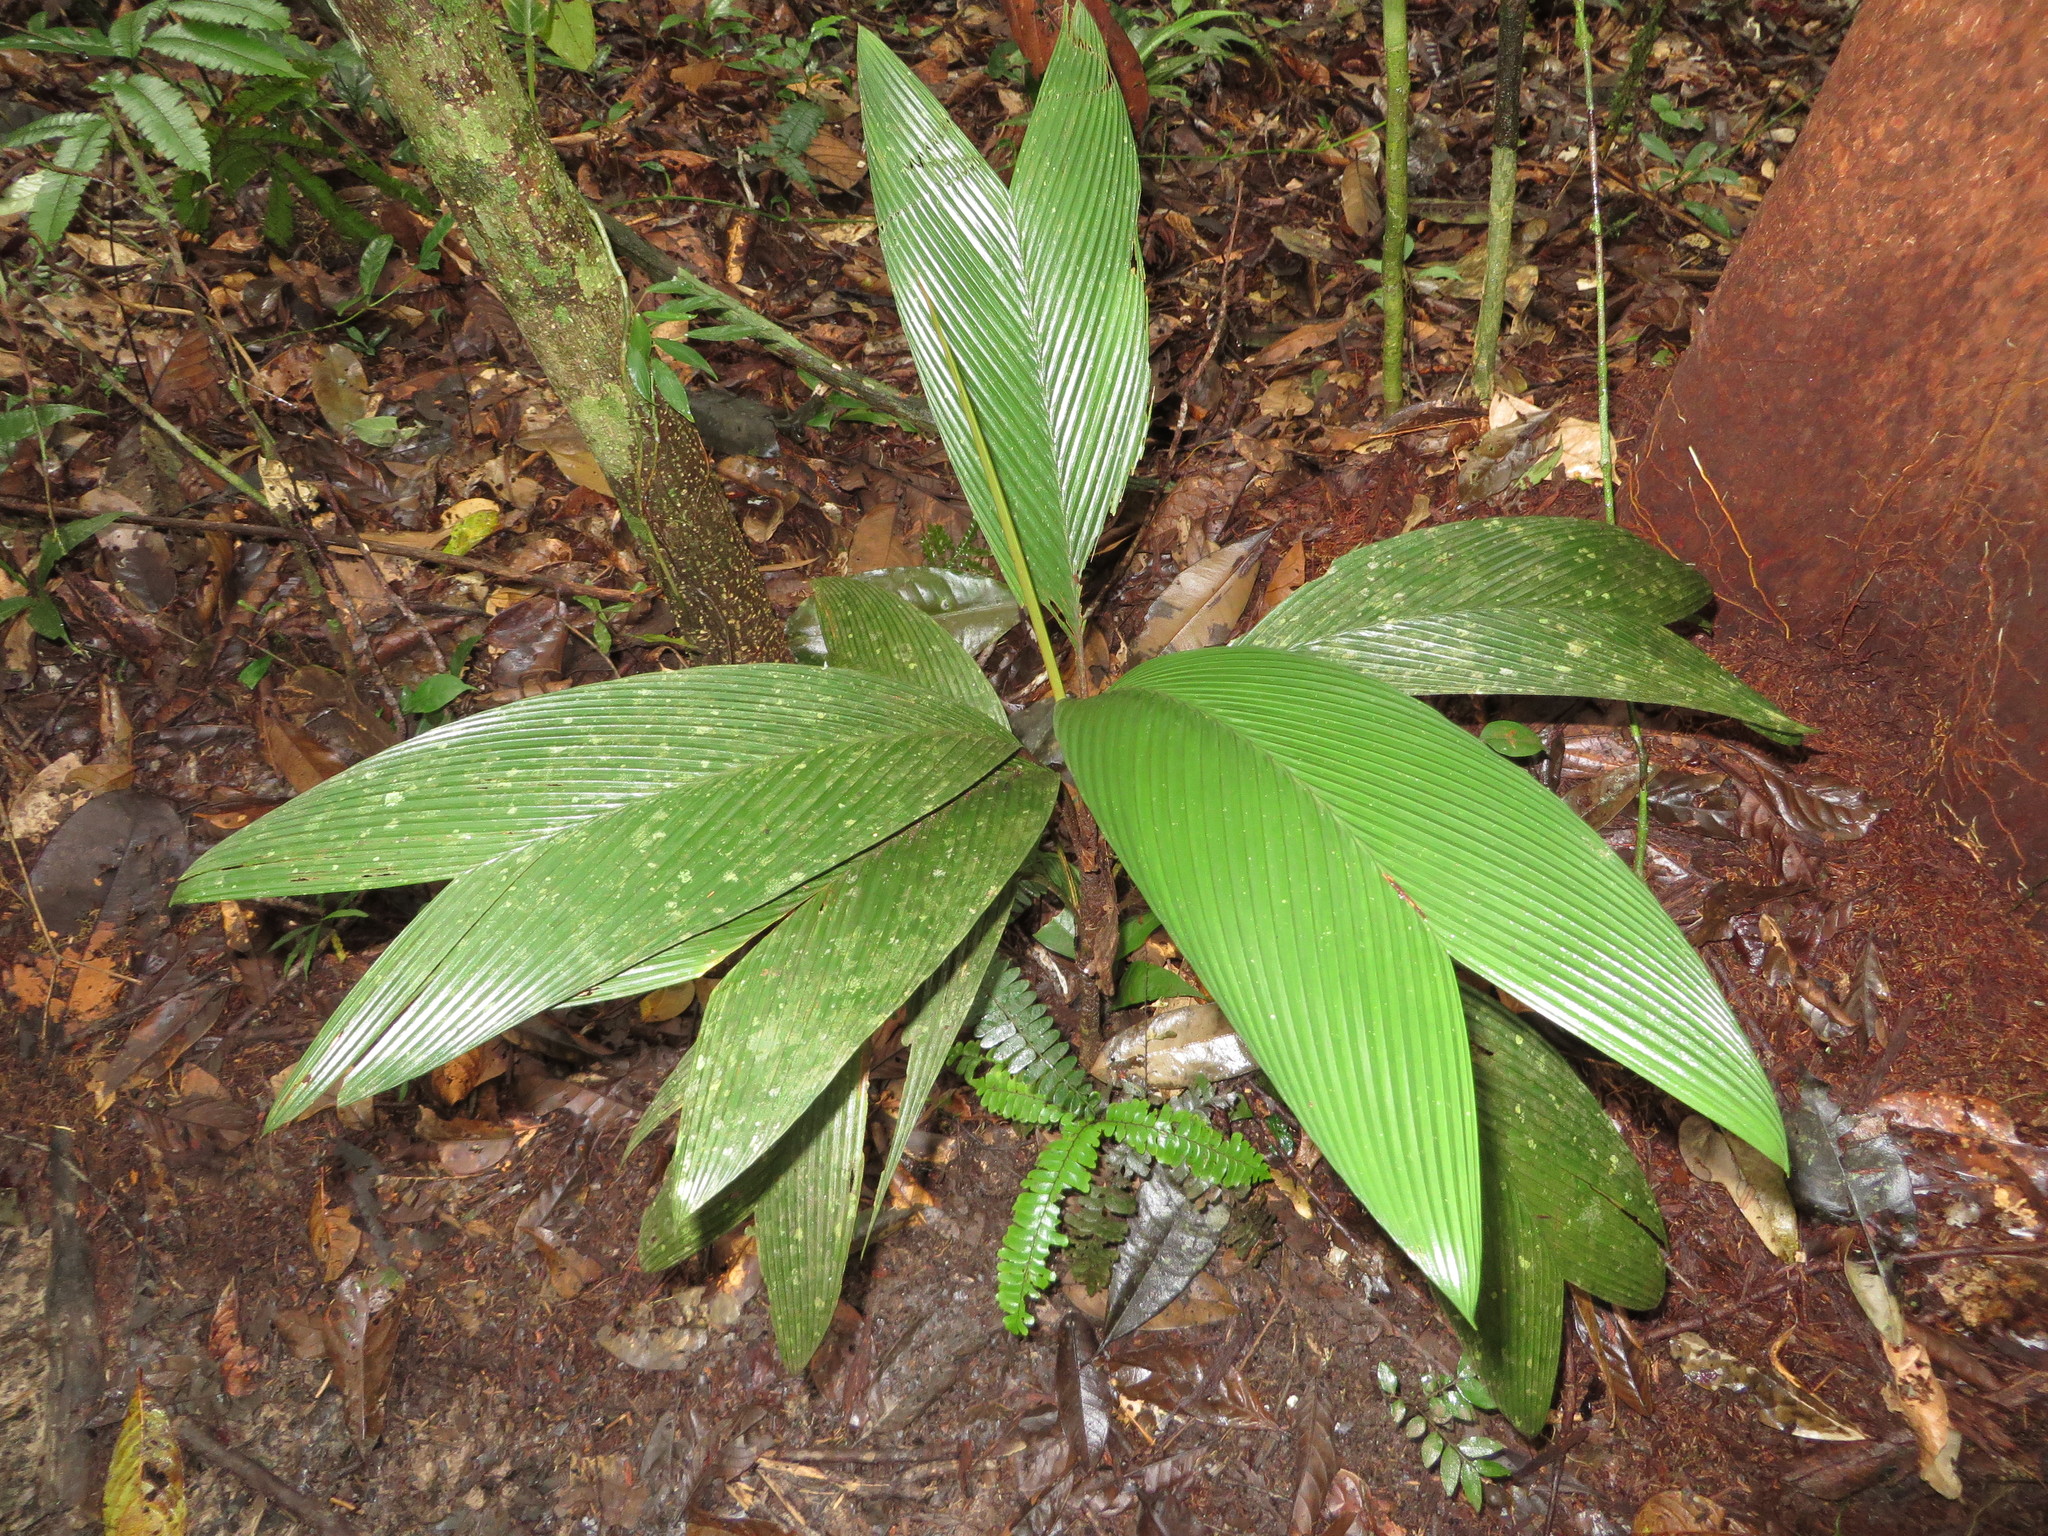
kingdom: Plantae
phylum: Tracheophyta
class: Liliopsida
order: Arecales
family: Arecaceae
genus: Geonoma
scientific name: Geonoma stricta
